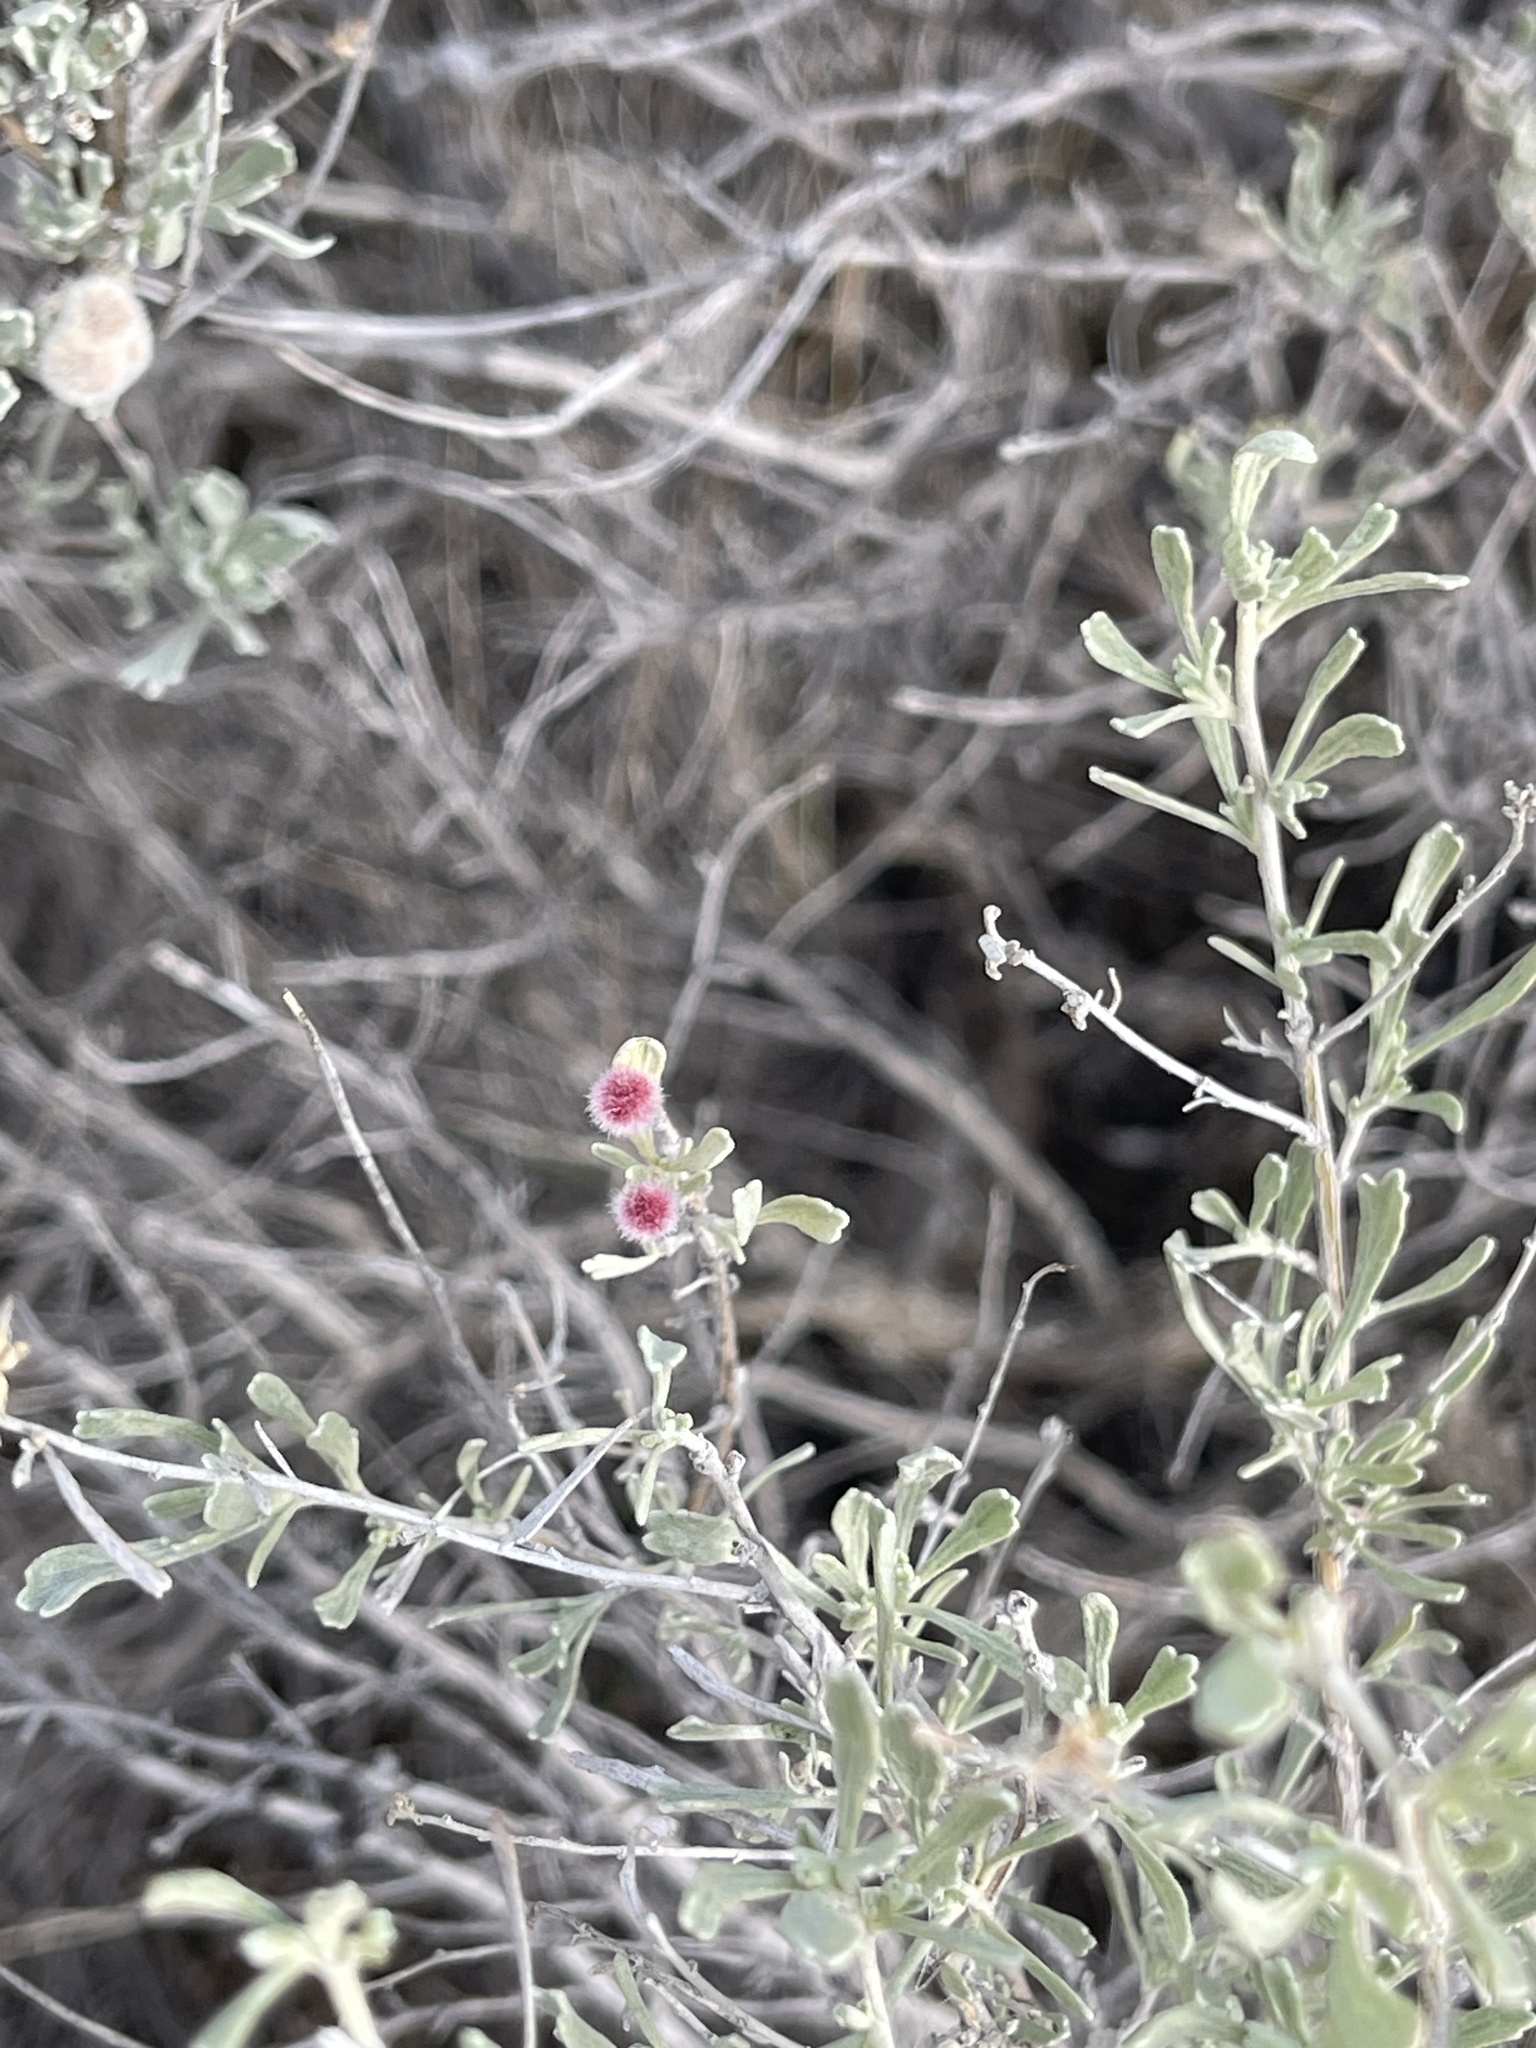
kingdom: Animalia
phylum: Arthropoda
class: Insecta
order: Diptera
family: Cecidomyiidae
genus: Rhopalomyia
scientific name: Rhopalomyia hirtipomum
